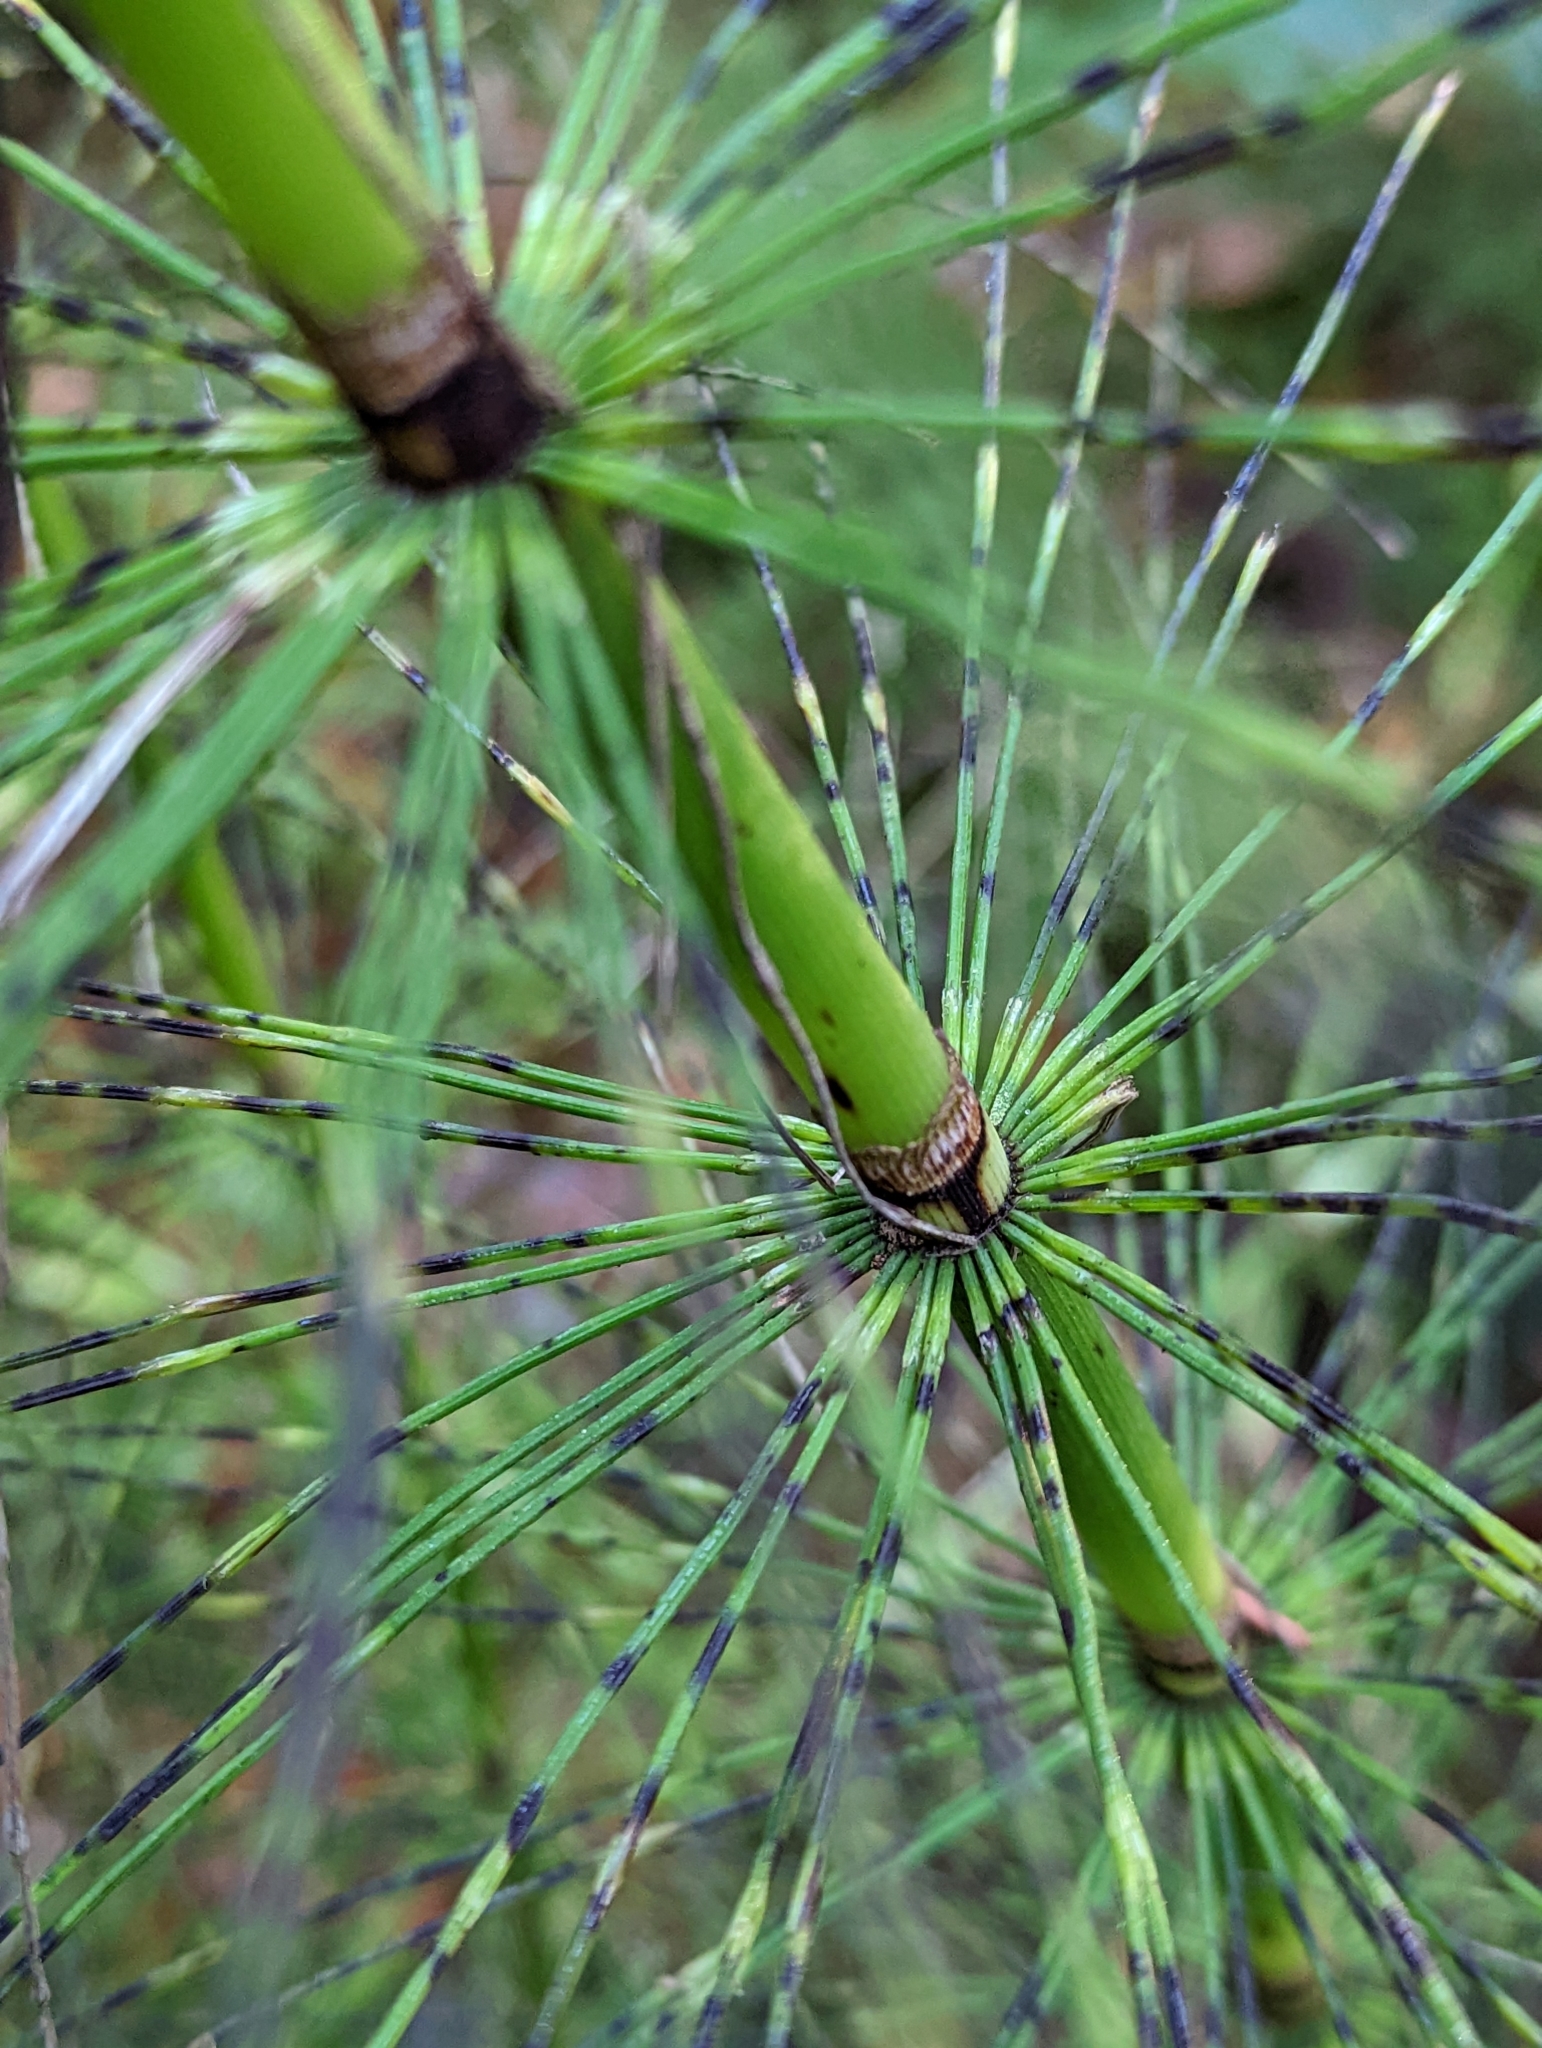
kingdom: Plantae
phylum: Tracheophyta
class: Polypodiopsida
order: Equisetales
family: Equisetaceae
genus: Equisetum
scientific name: Equisetum braunii
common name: Braun's horsetail
